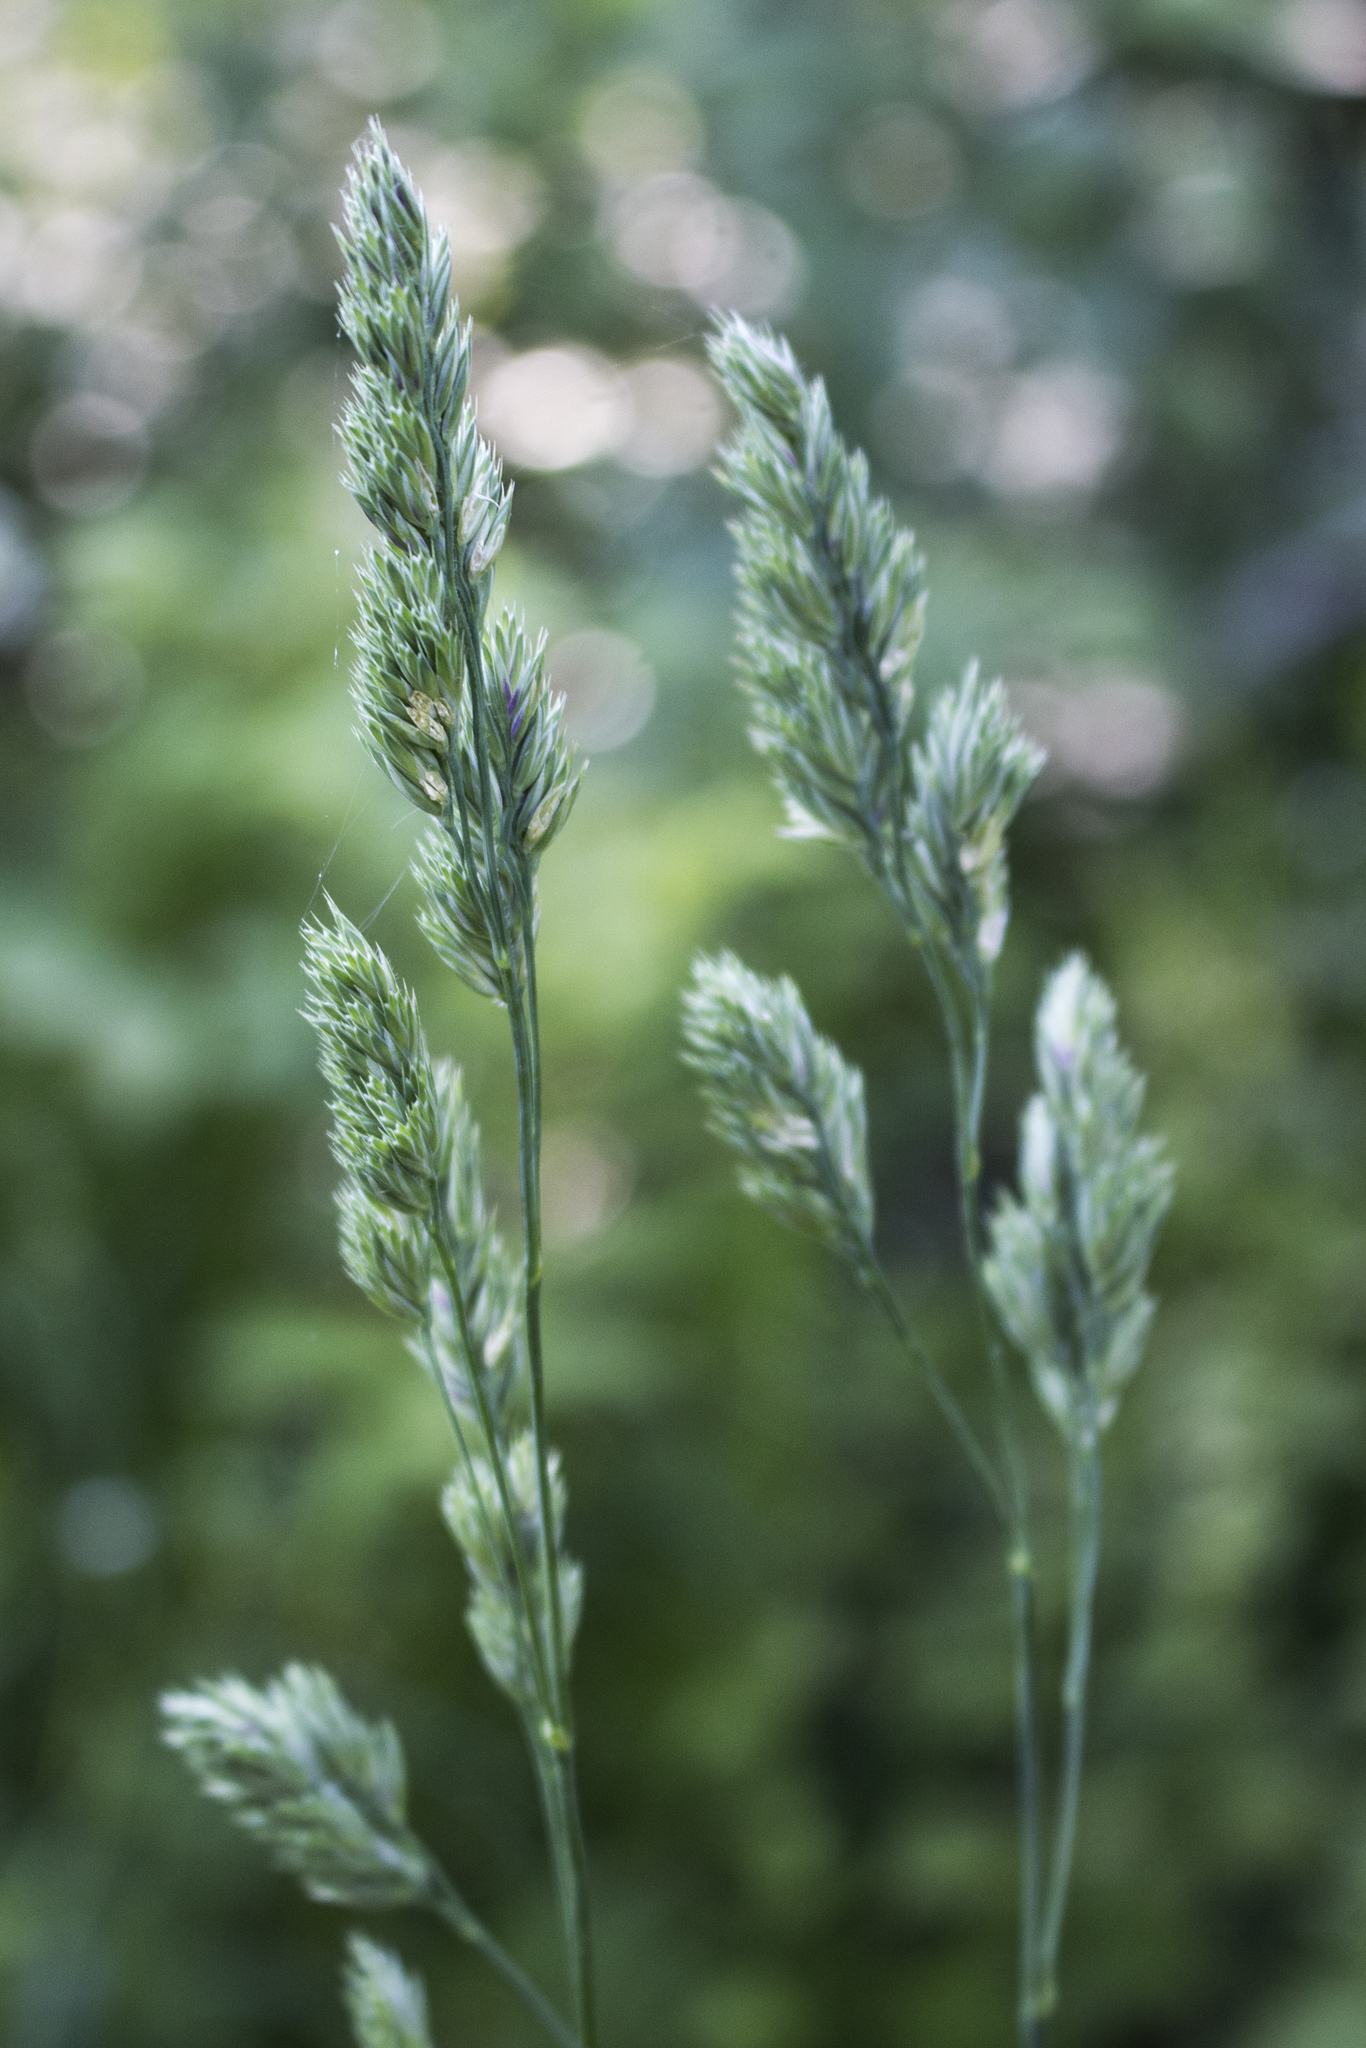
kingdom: Plantae
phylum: Tracheophyta
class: Liliopsida
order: Poales
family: Poaceae
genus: Dactylis
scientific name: Dactylis glomerata
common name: Orchardgrass
